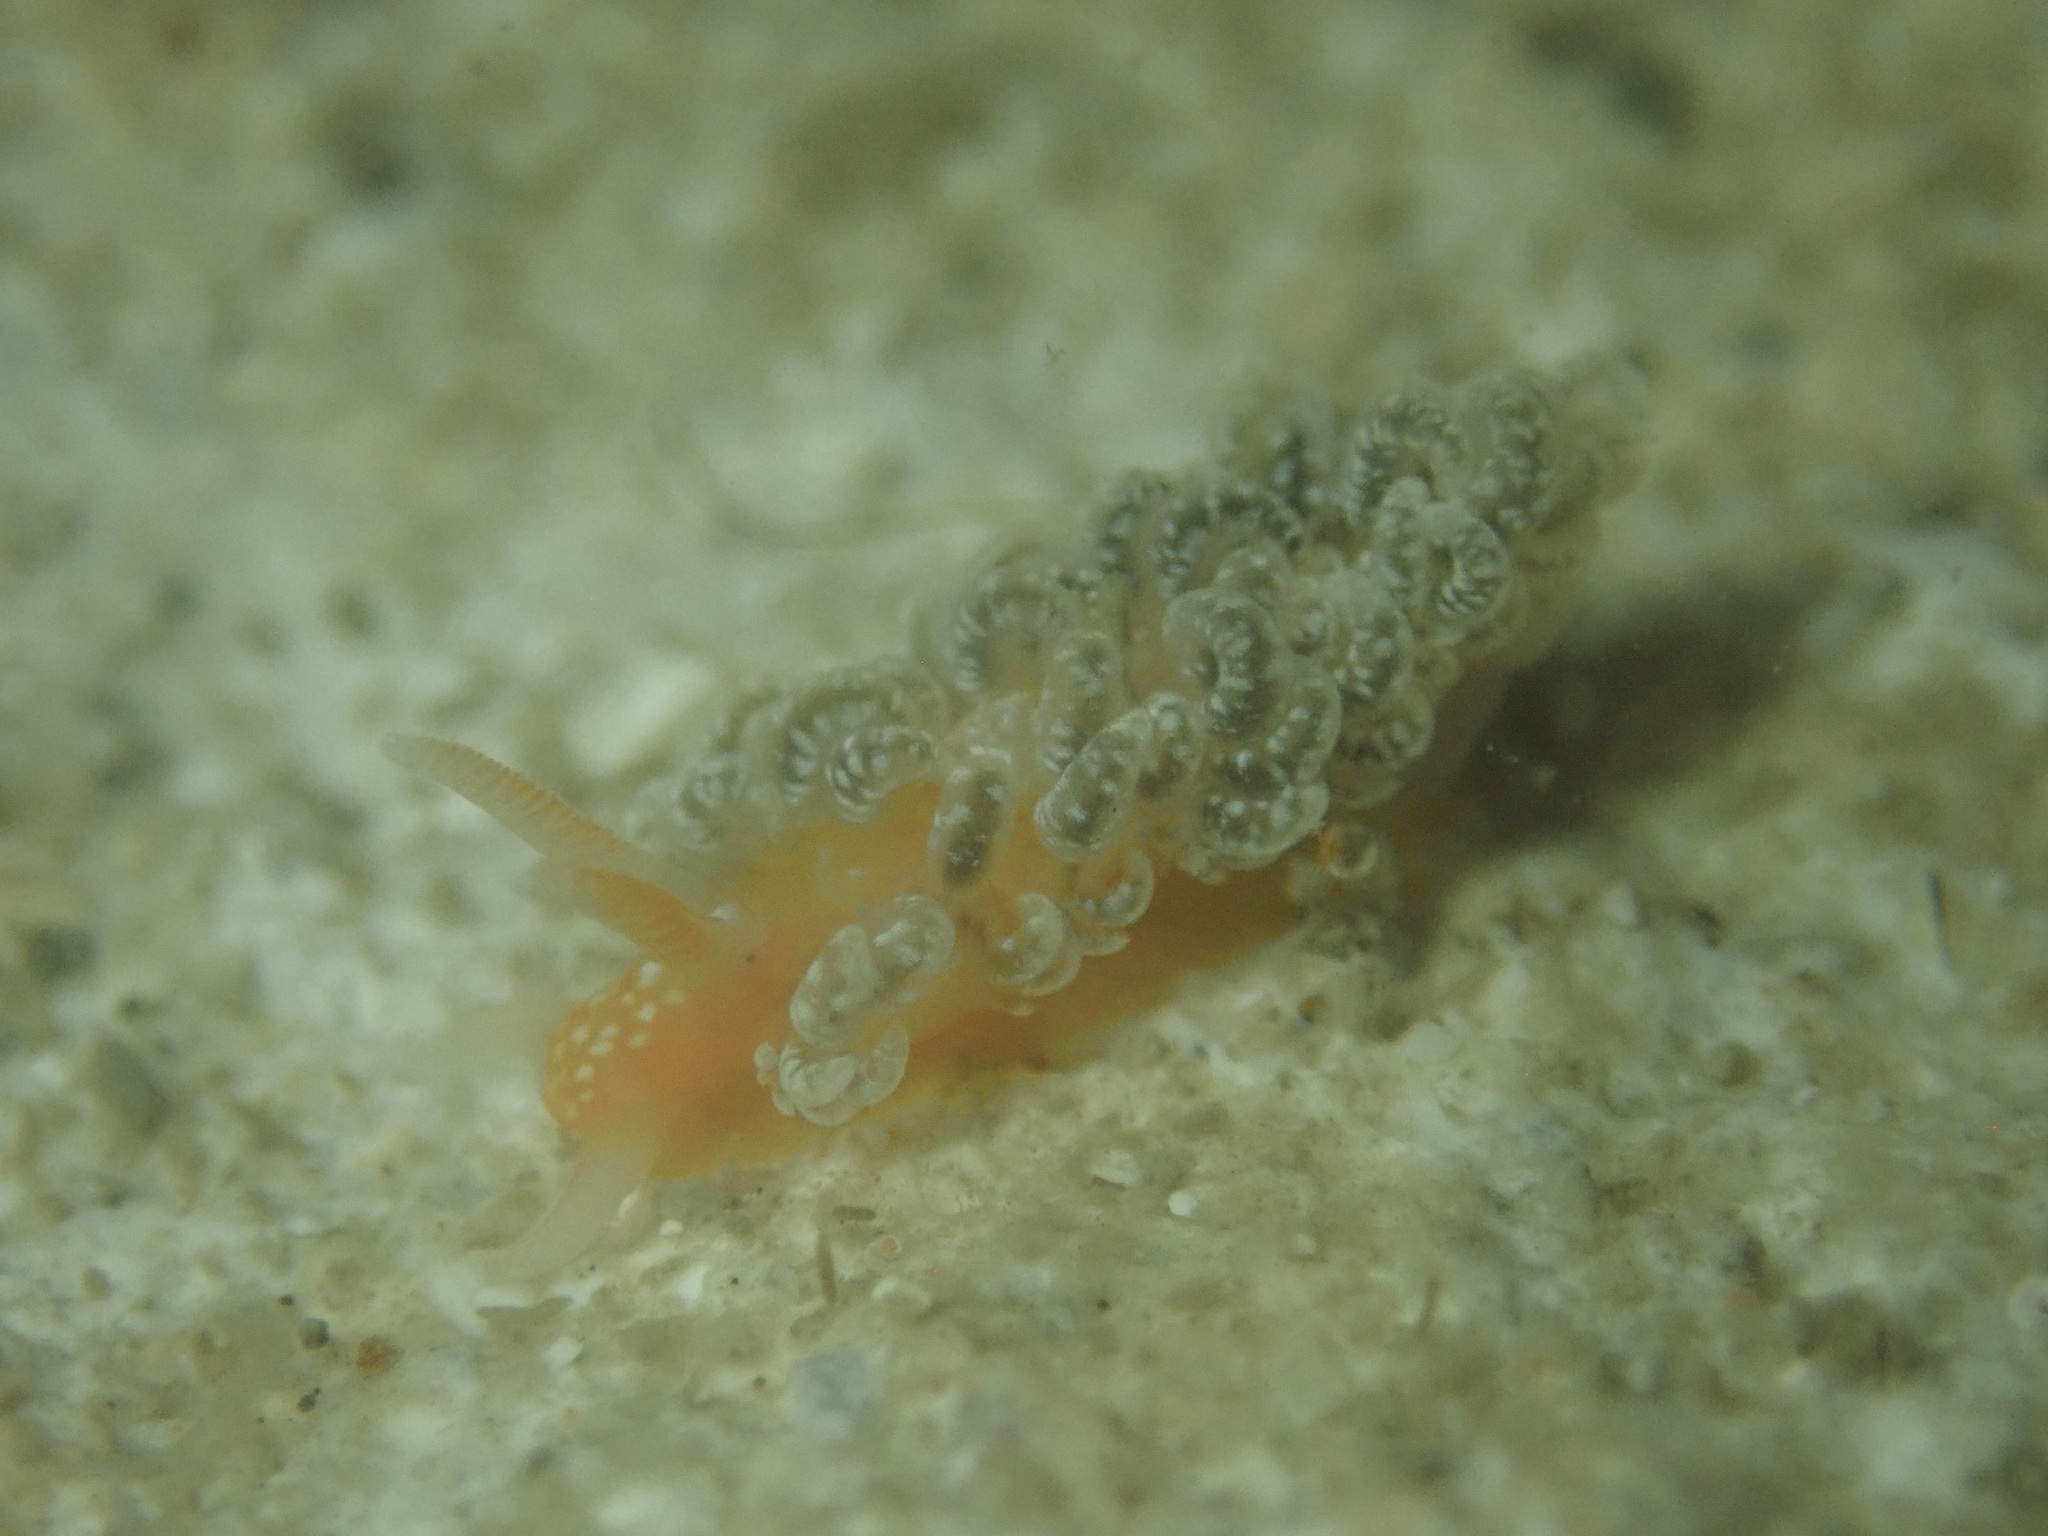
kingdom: Animalia
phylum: Mollusca
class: Gastropoda
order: Nudibranchia
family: Aeolidiidae
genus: Spurilla
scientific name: Spurilla braziliana
